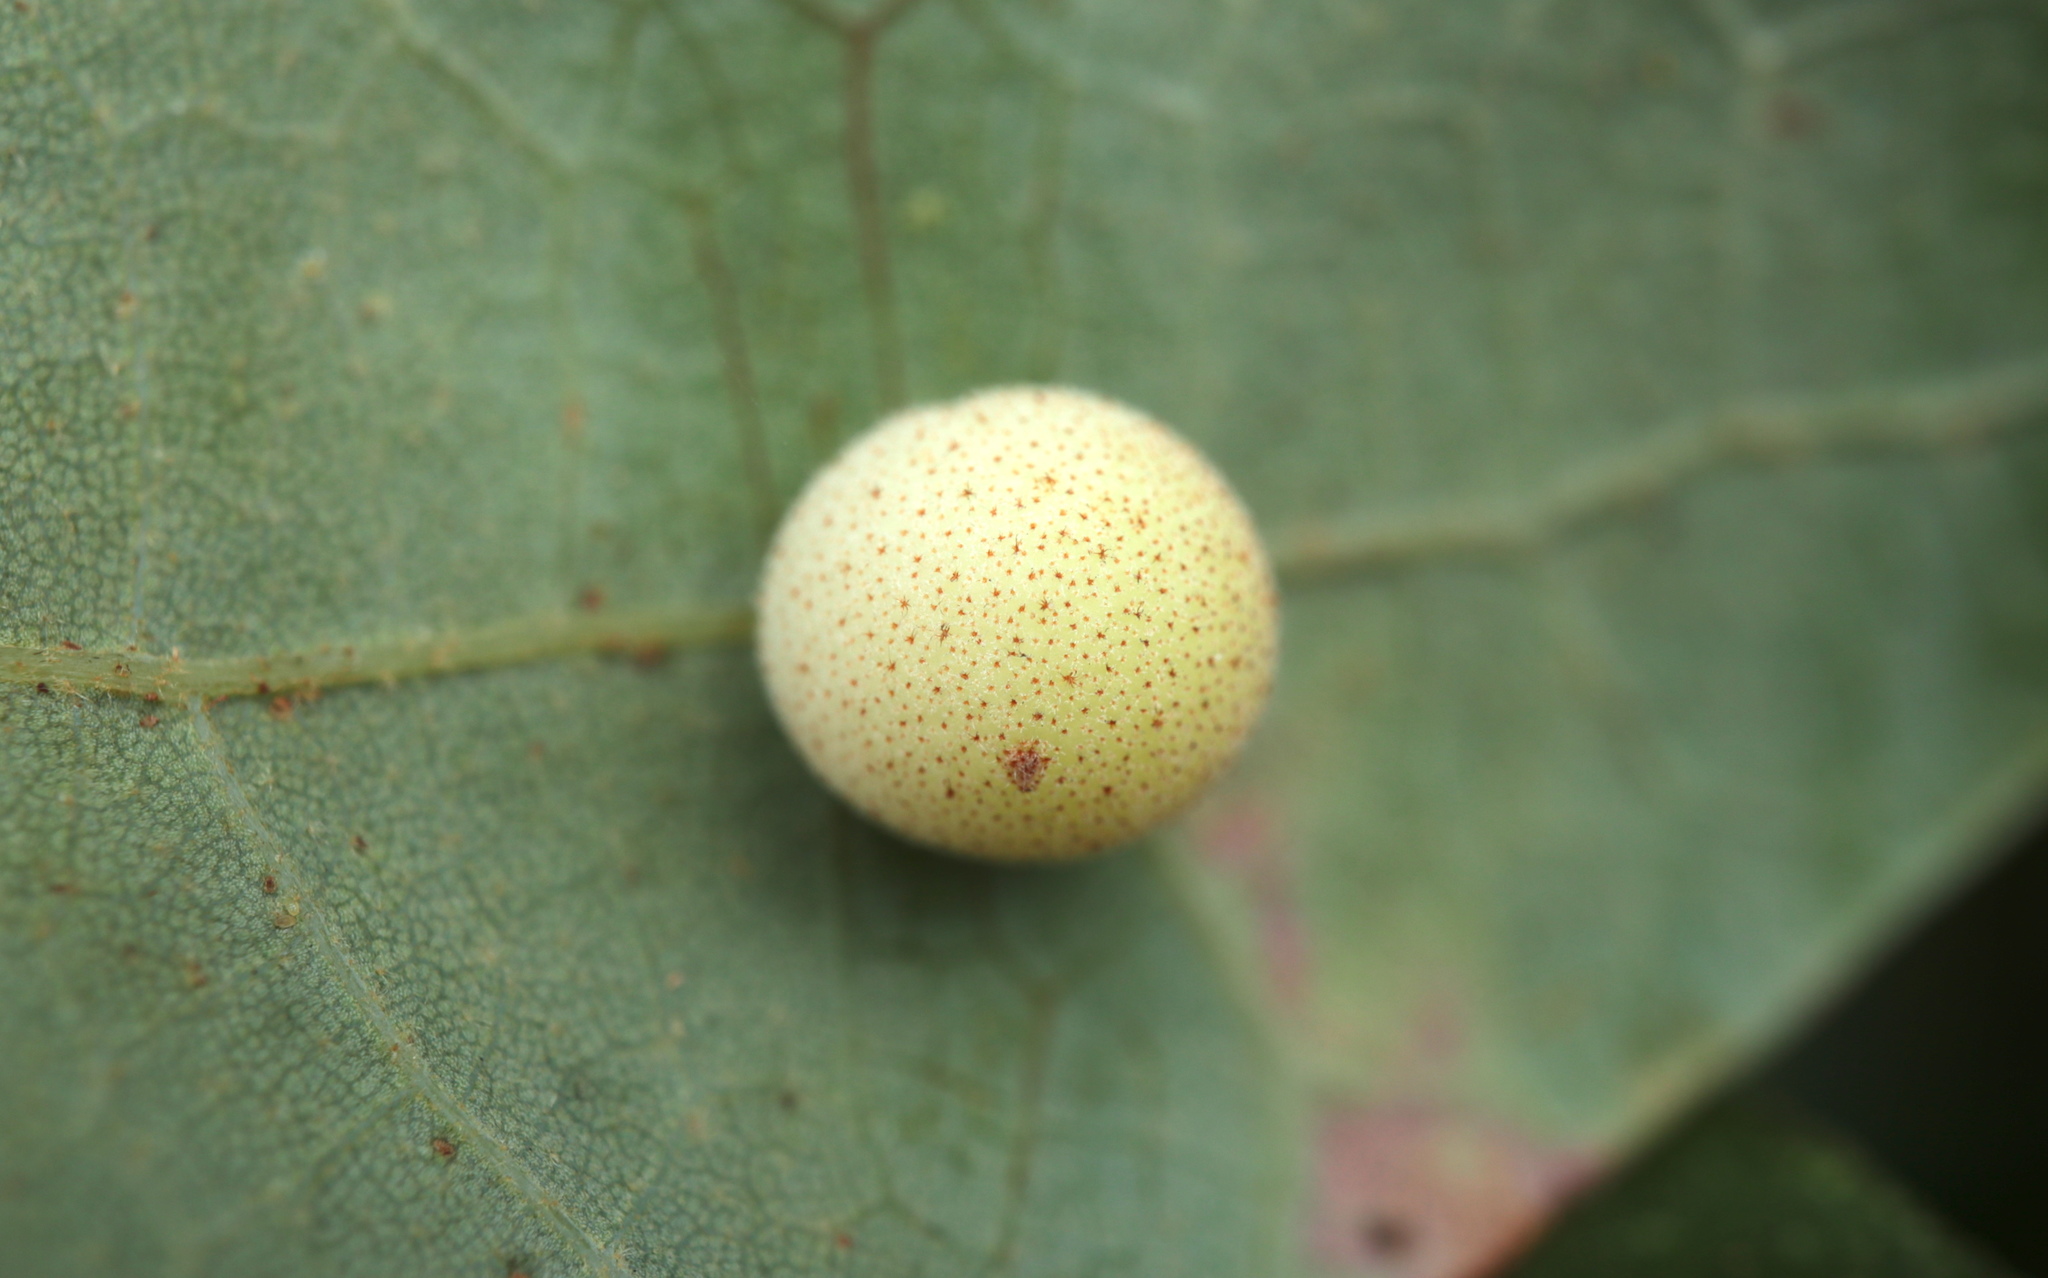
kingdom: Animalia
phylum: Arthropoda
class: Insecta
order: Hymenoptera
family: Cynipidae
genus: Atrusca
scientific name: Atrusca
